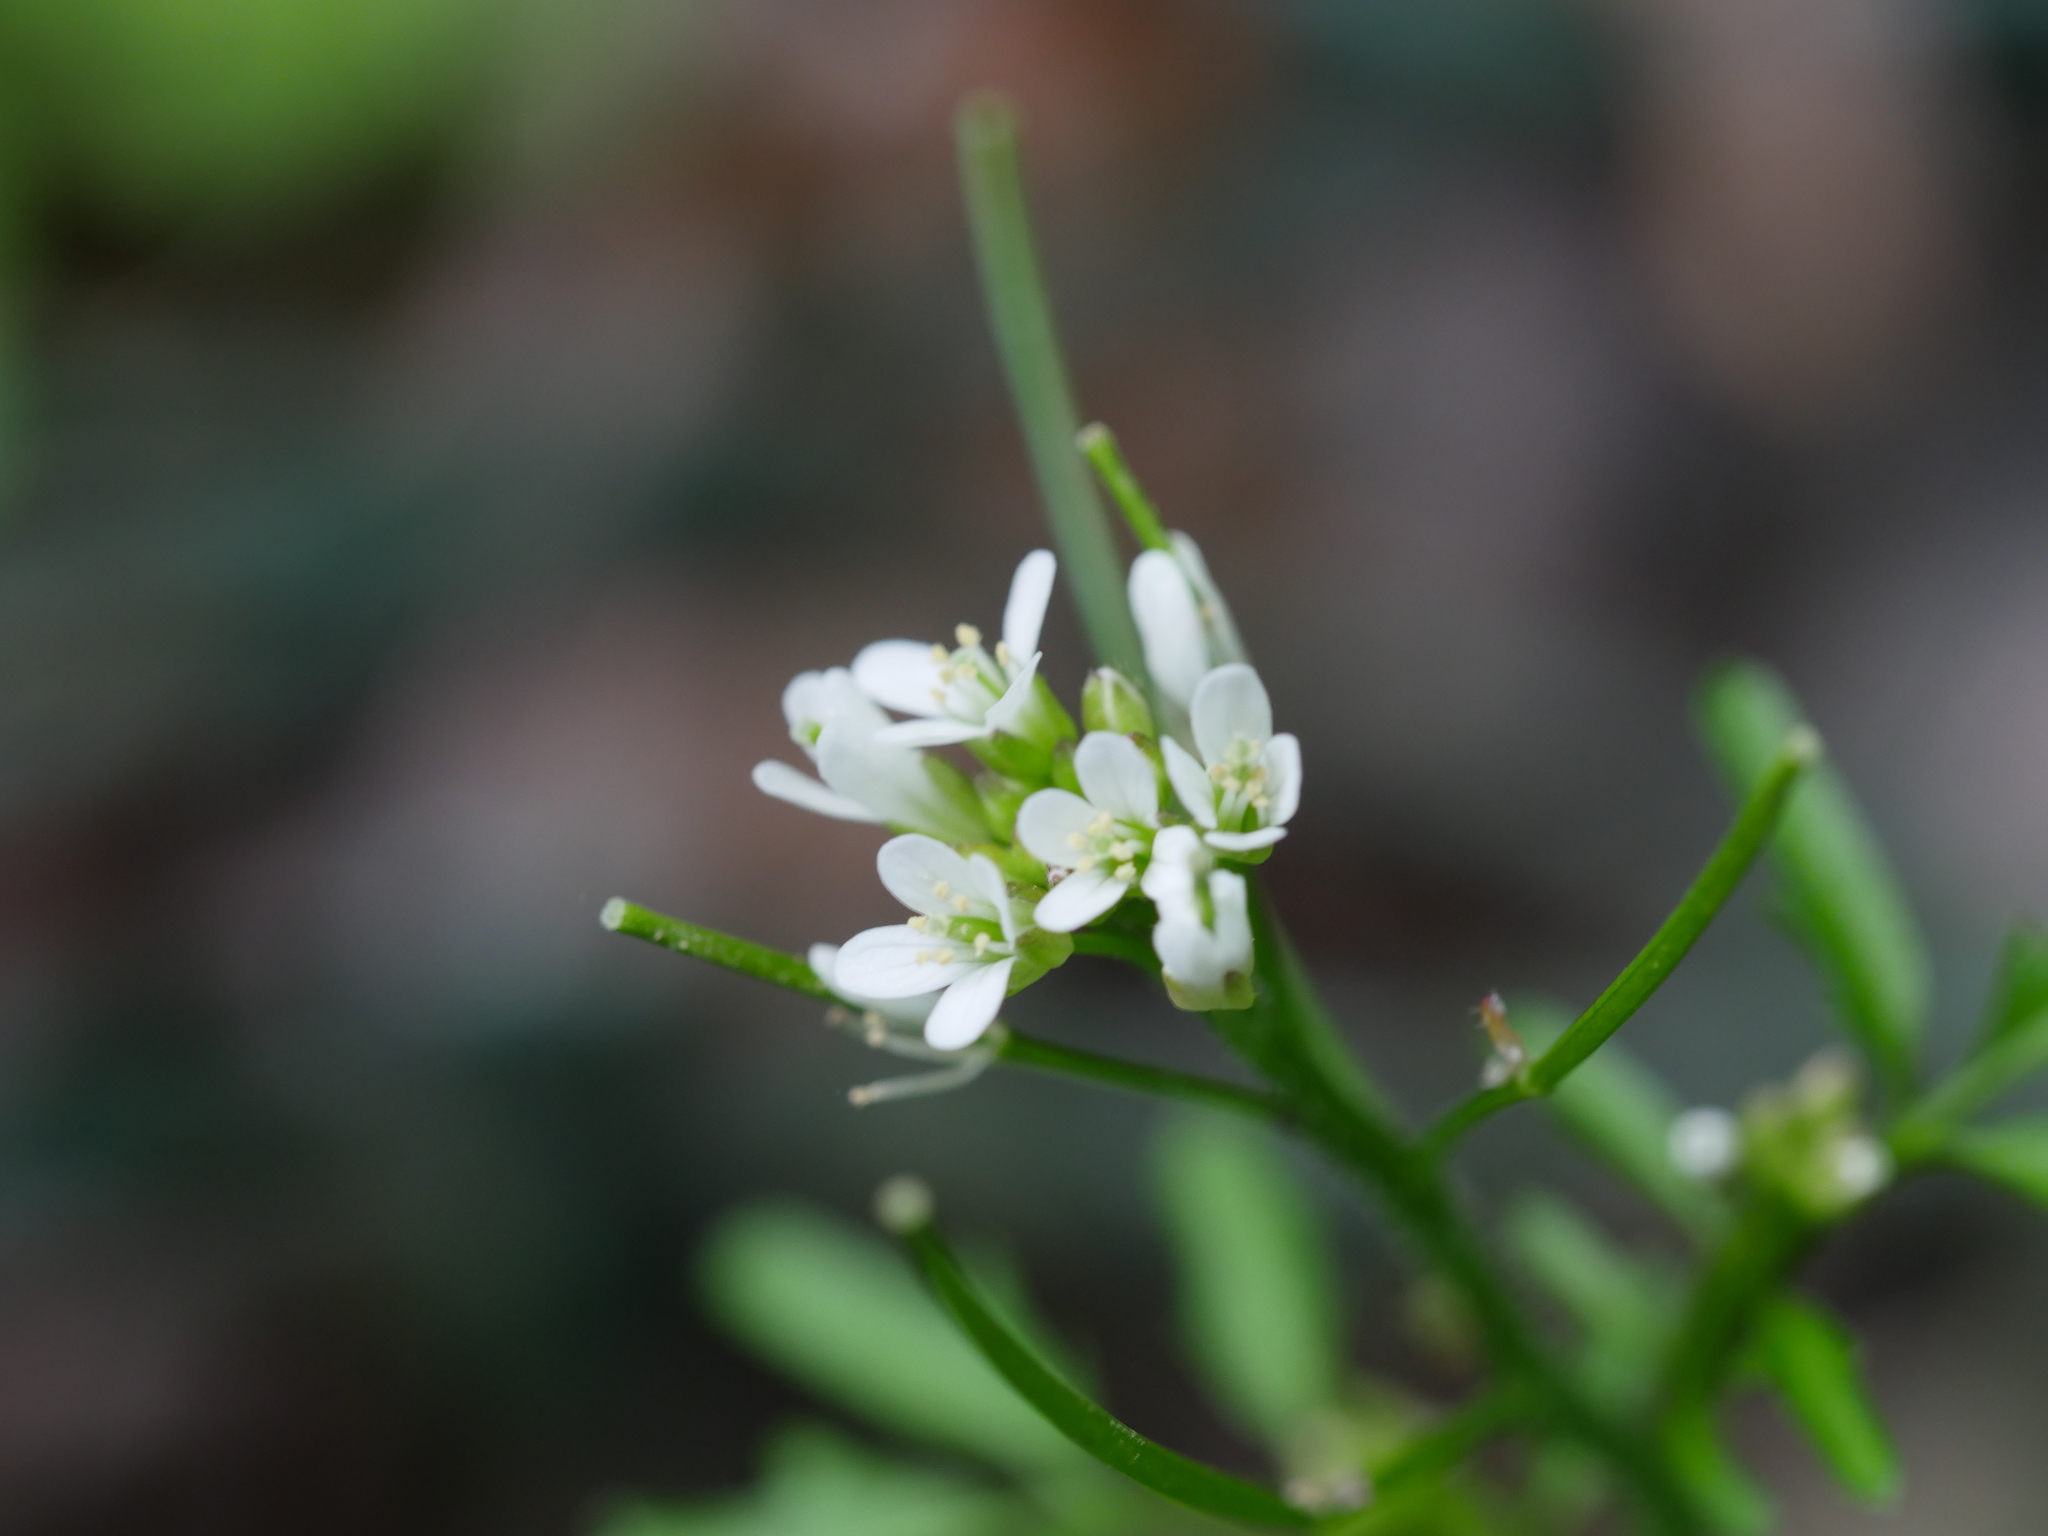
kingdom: Plantae
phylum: Tracheophyta
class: Magnoliopsida
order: Brassicales
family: Brassicaceae
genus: Cardamine
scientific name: Cardamine flexuosa
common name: Woodland bittercress
